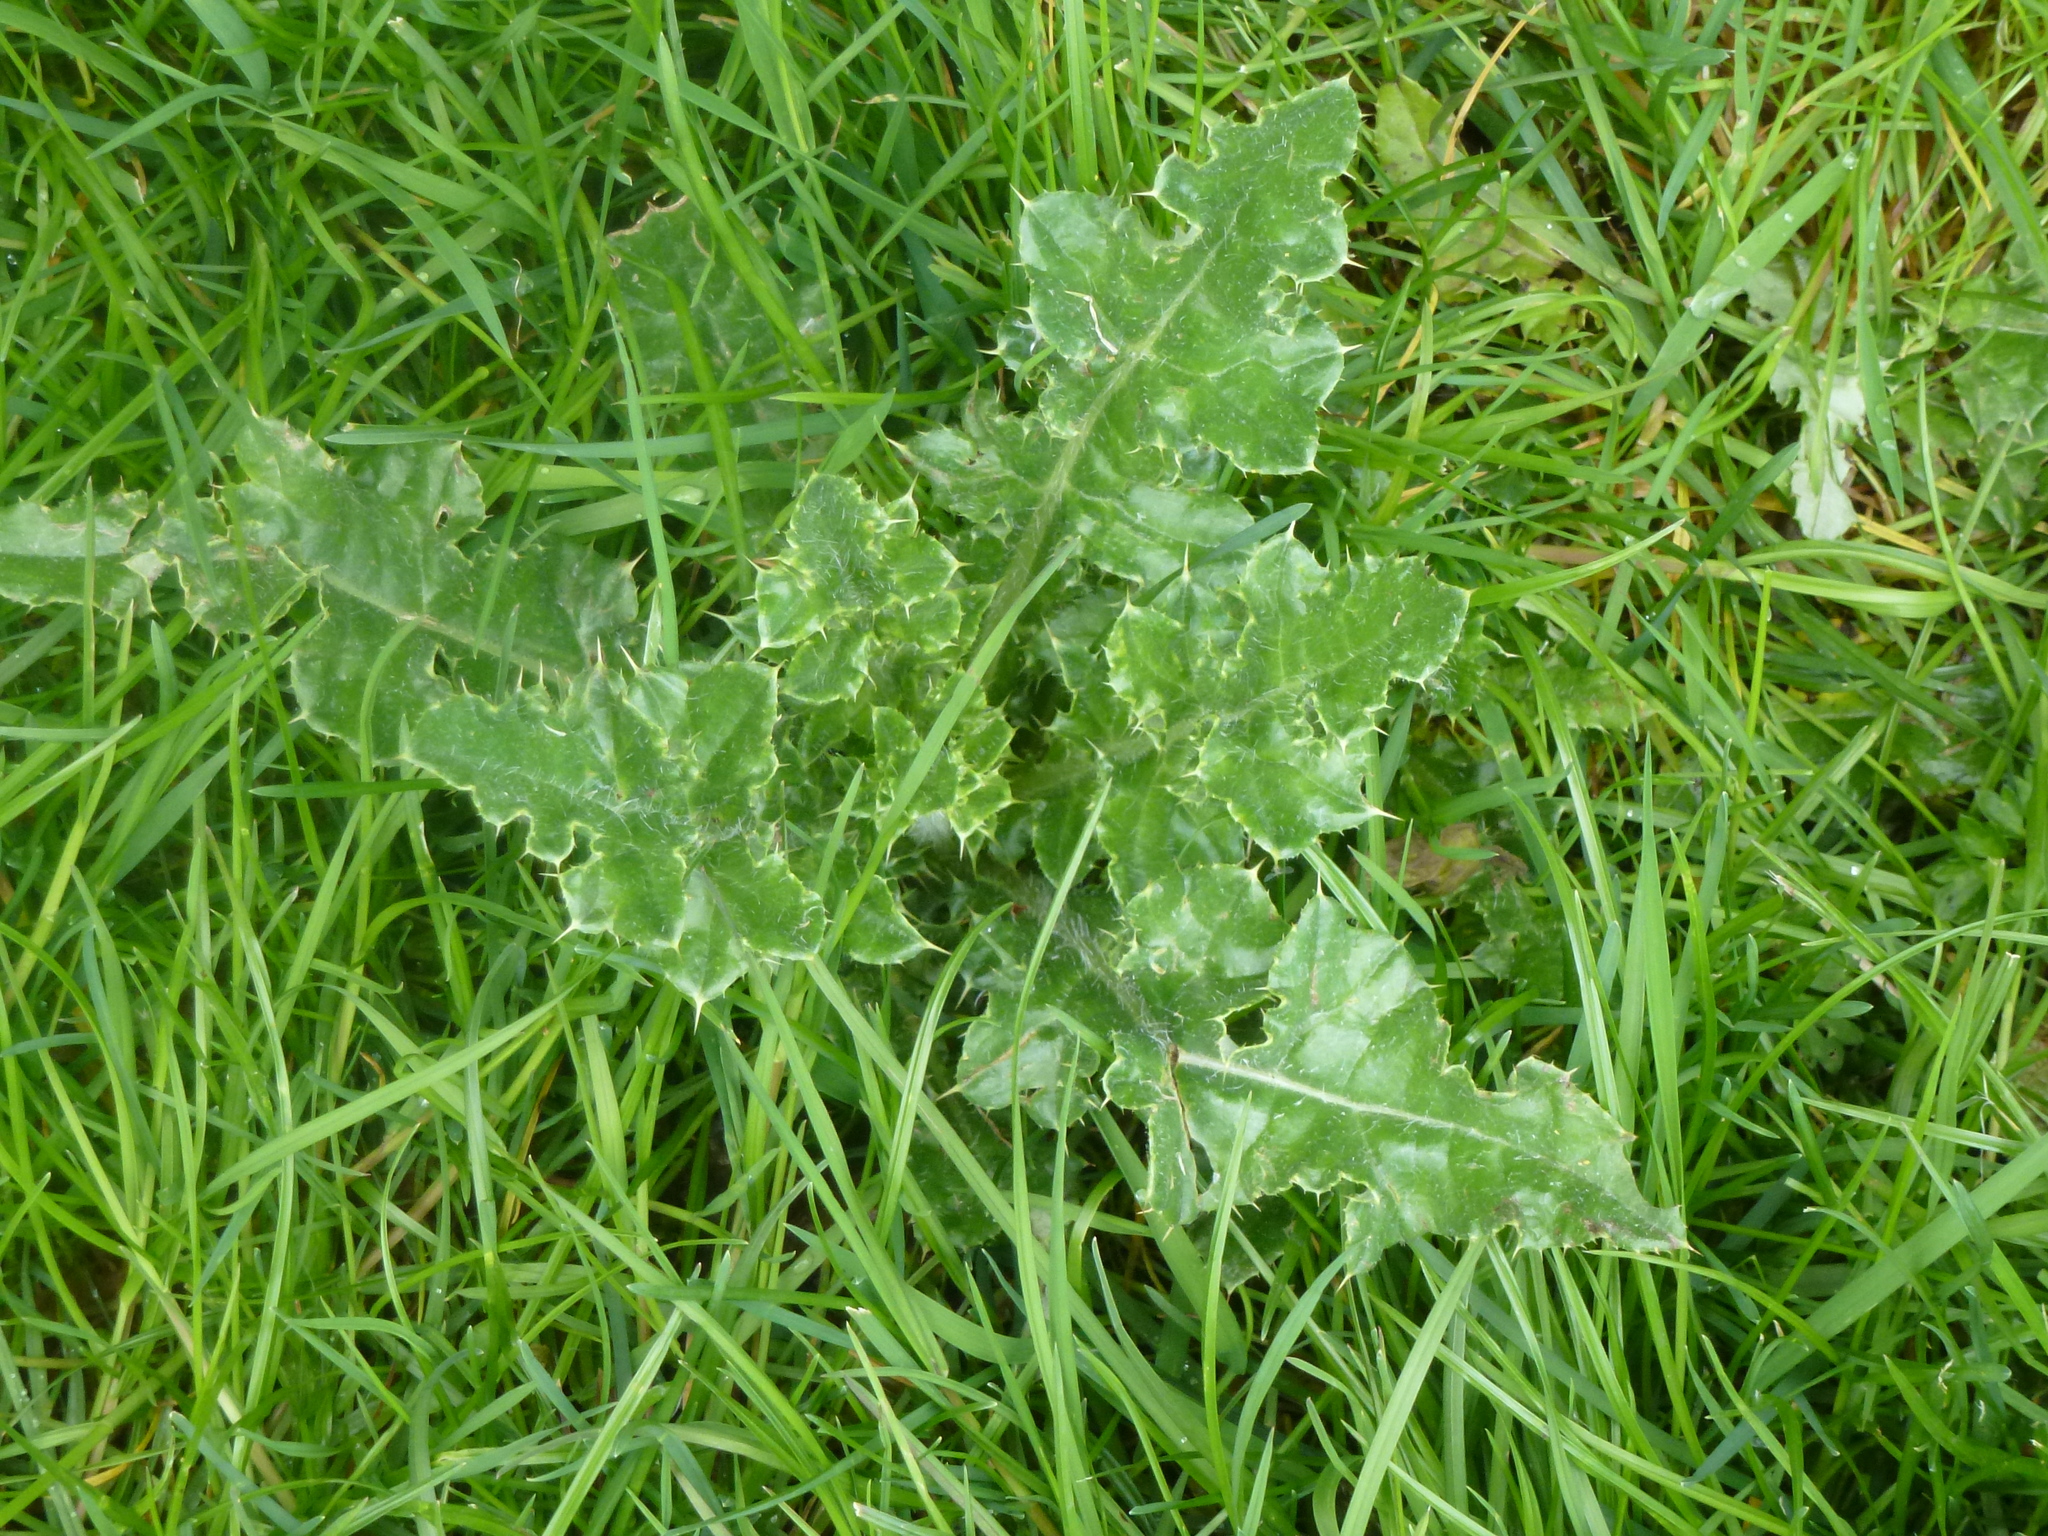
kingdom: Plantae
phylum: Tracheophyta
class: Magnoliopsida
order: Asterales
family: Asteraceae
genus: Cirsium
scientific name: Cirsium arvense
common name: Creeping thistle
